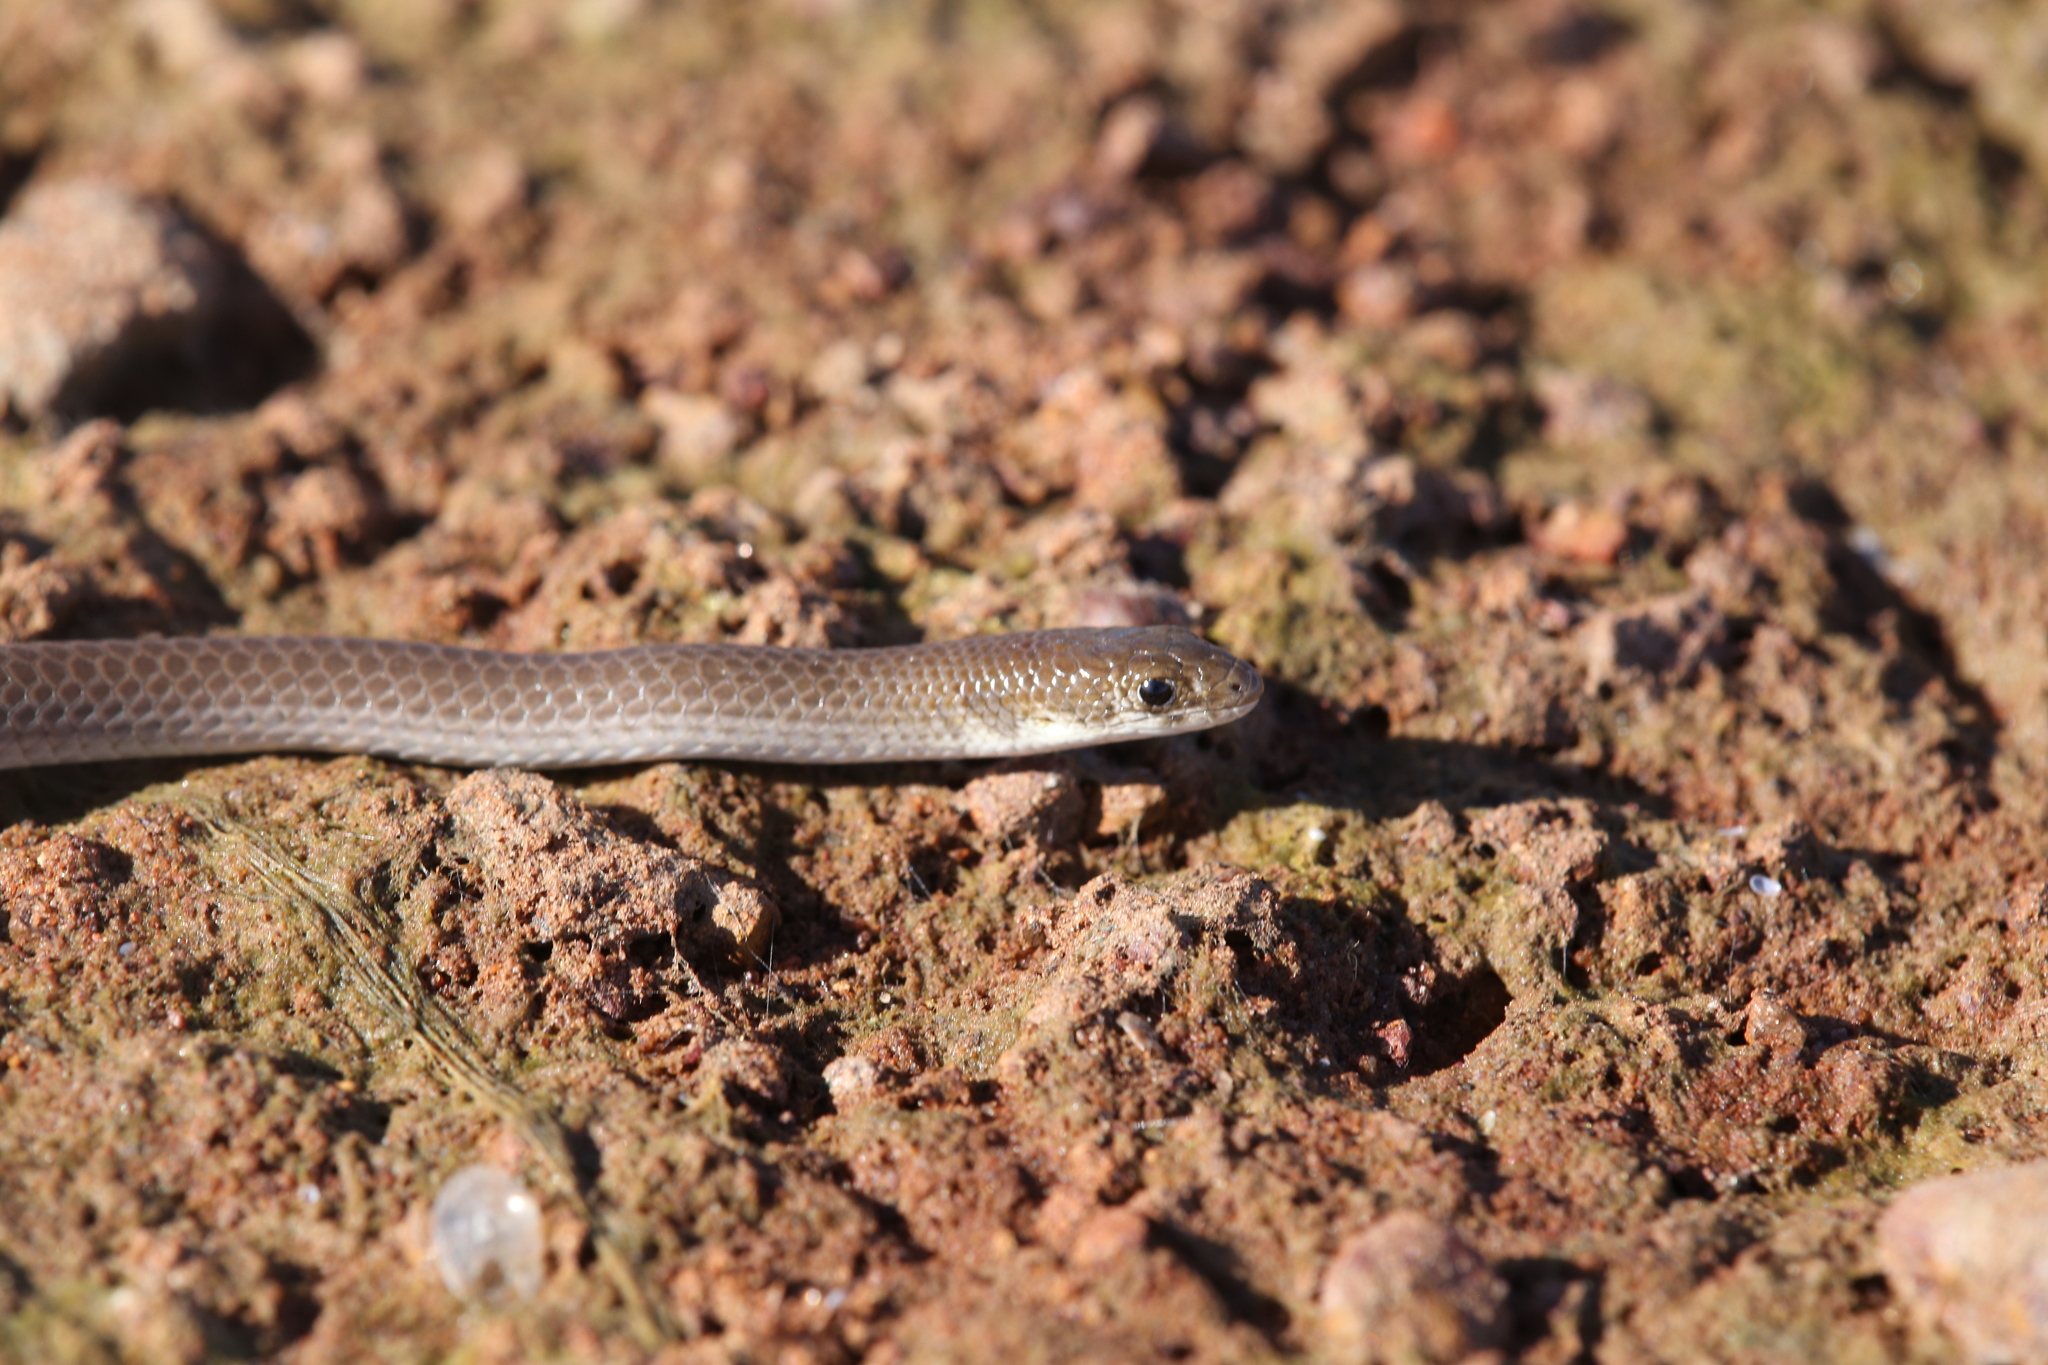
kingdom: Animalia
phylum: Chordata
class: Squamata
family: Pygopodidae
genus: Delma
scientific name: Delma tincta
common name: Excitable delma
